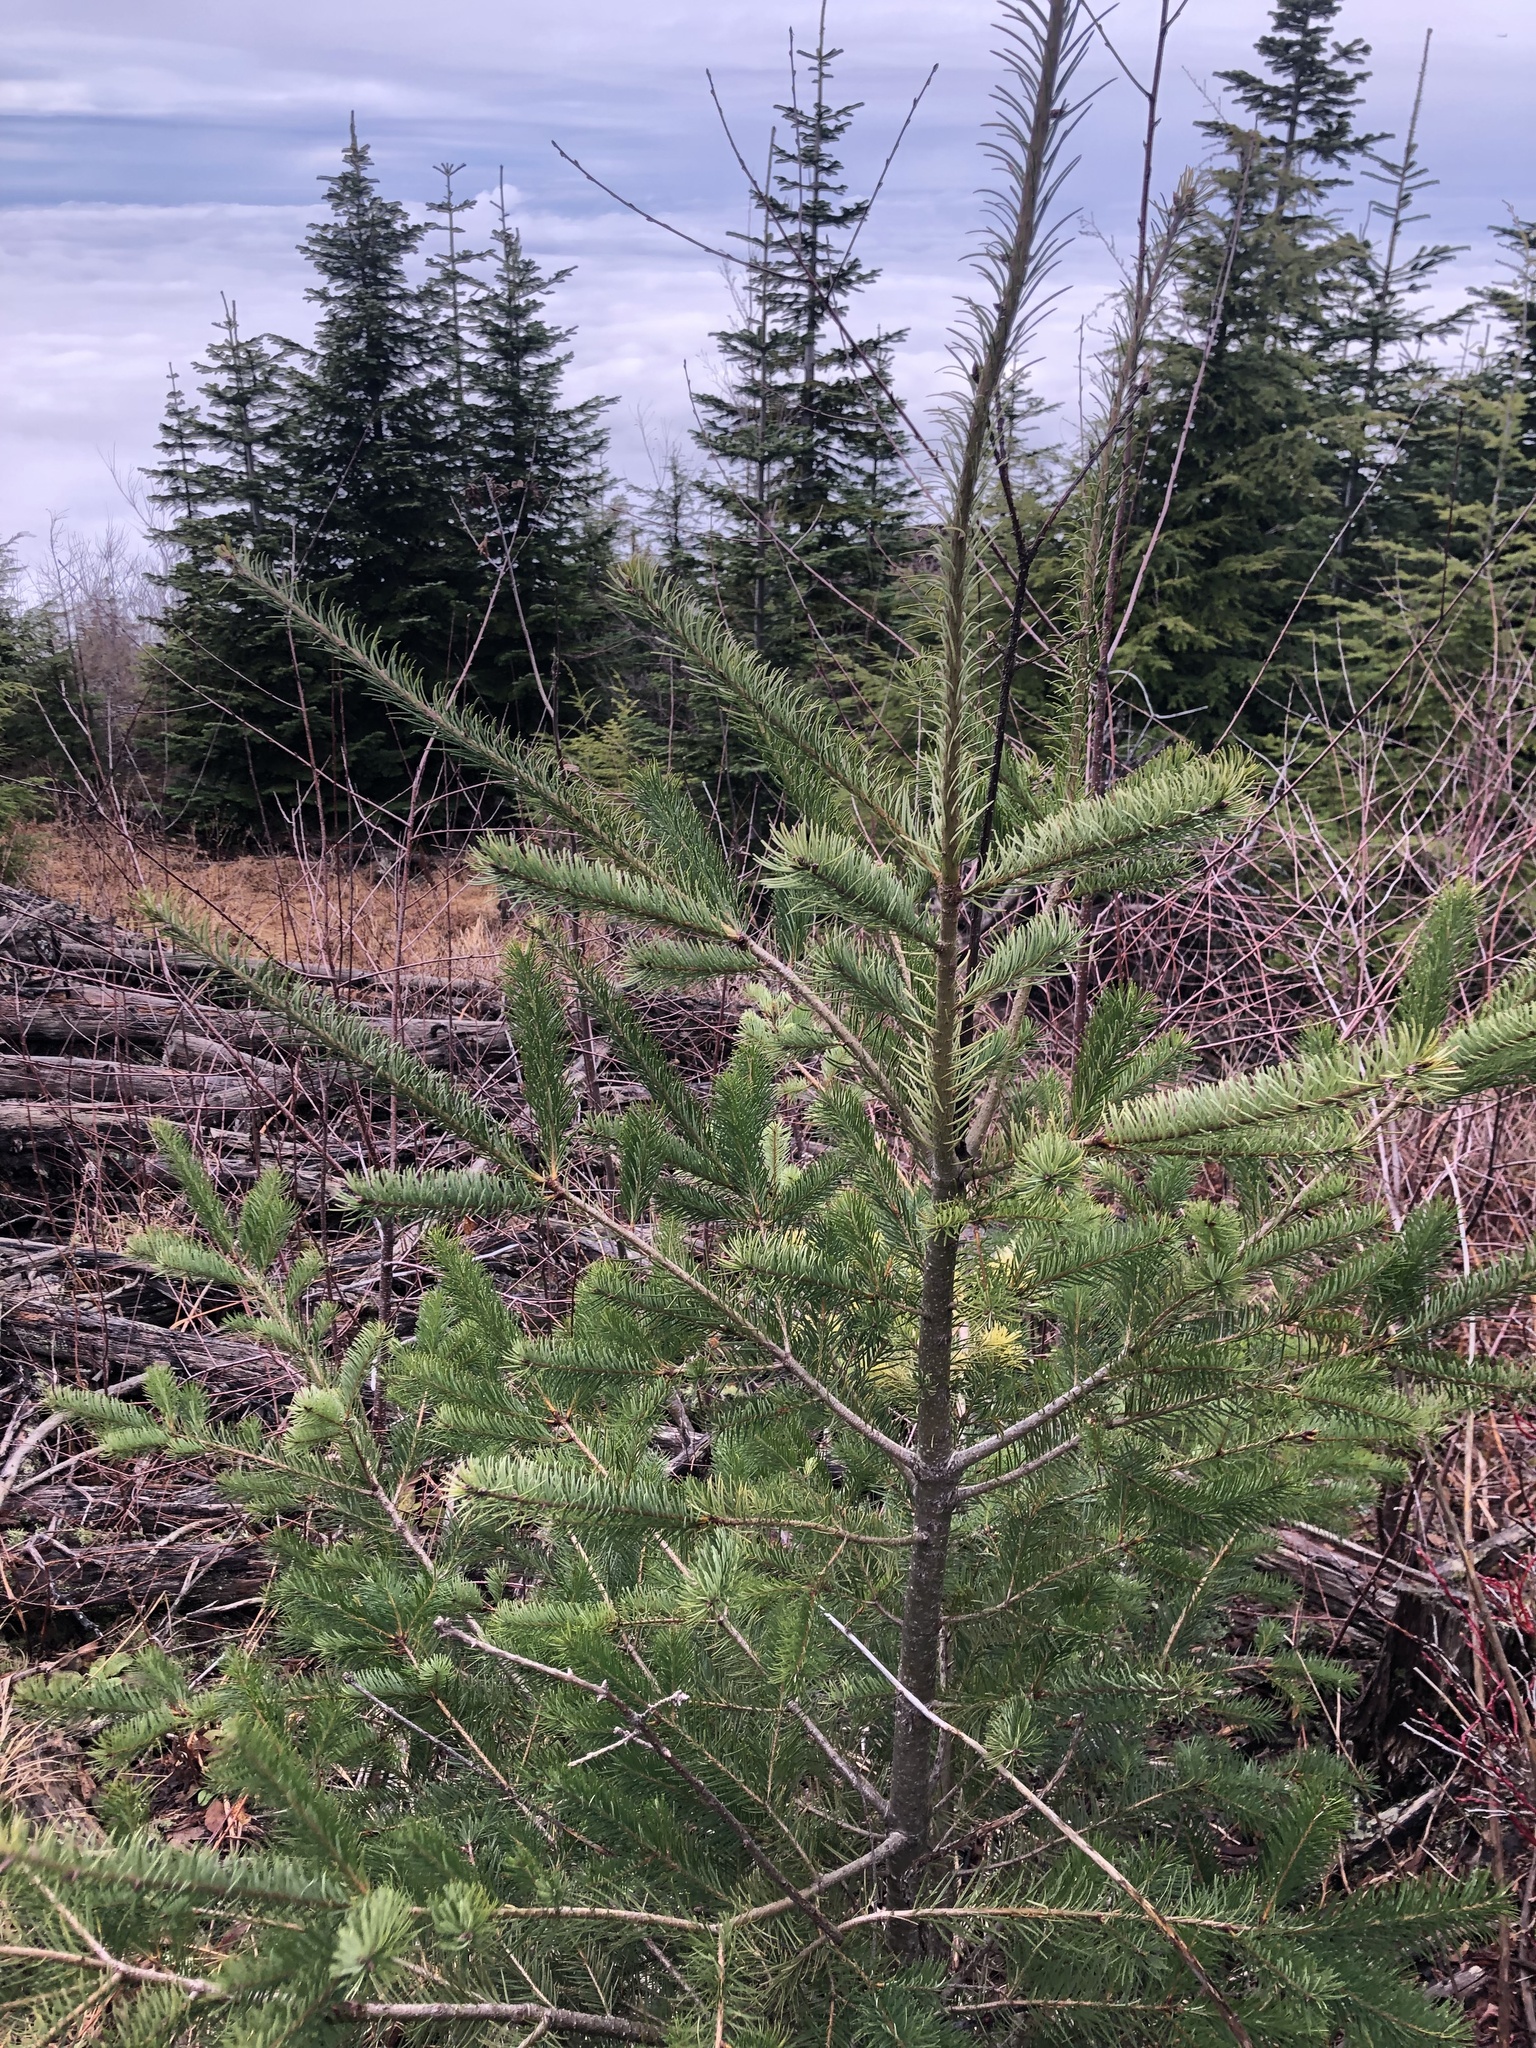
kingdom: Plantae
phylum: Tracheophyta
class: Pinopsida
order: Pinales
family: Pinaceae
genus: Pseudotsuga
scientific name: Pseudotsuga menziesii
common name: Douglas fir
